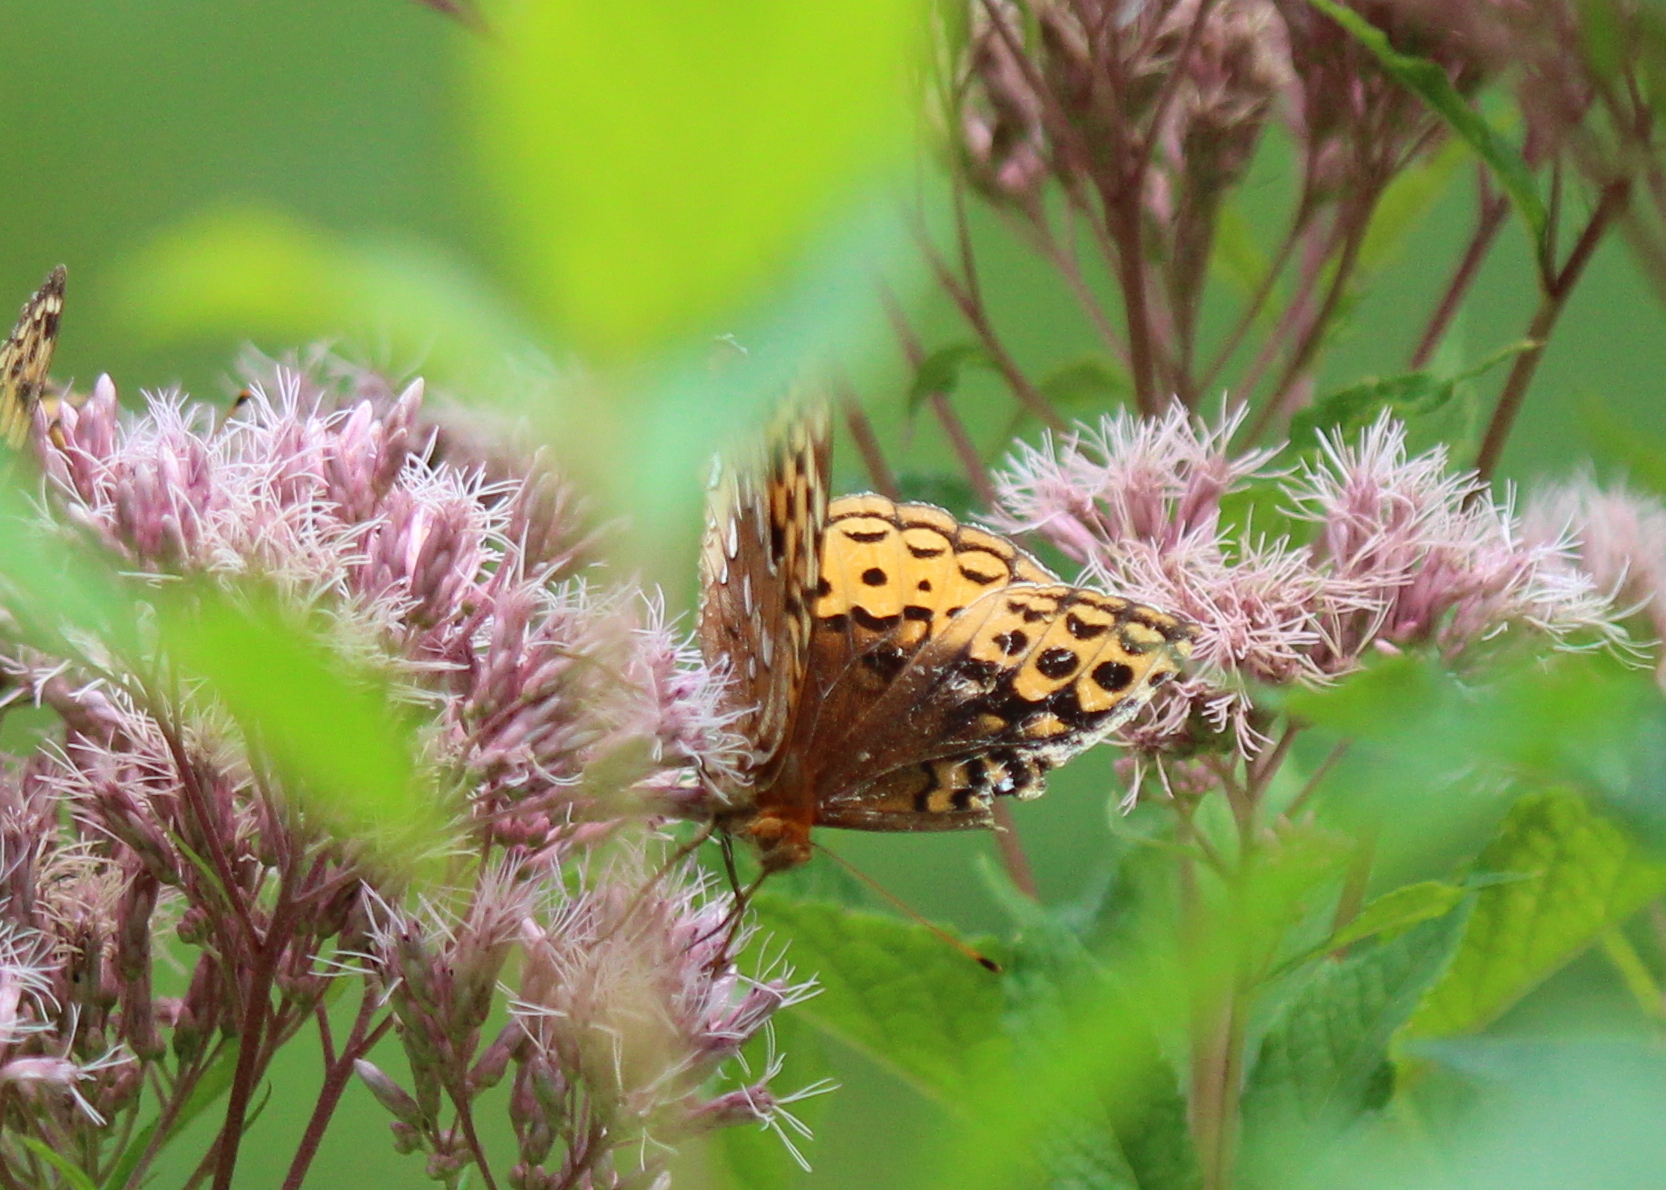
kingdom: Animalia
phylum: Arthropoda
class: Insecta
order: Lepidoptera
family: Nymphalidae
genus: Speyeria
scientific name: Speyeria cybele
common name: Great spangled fritillary
